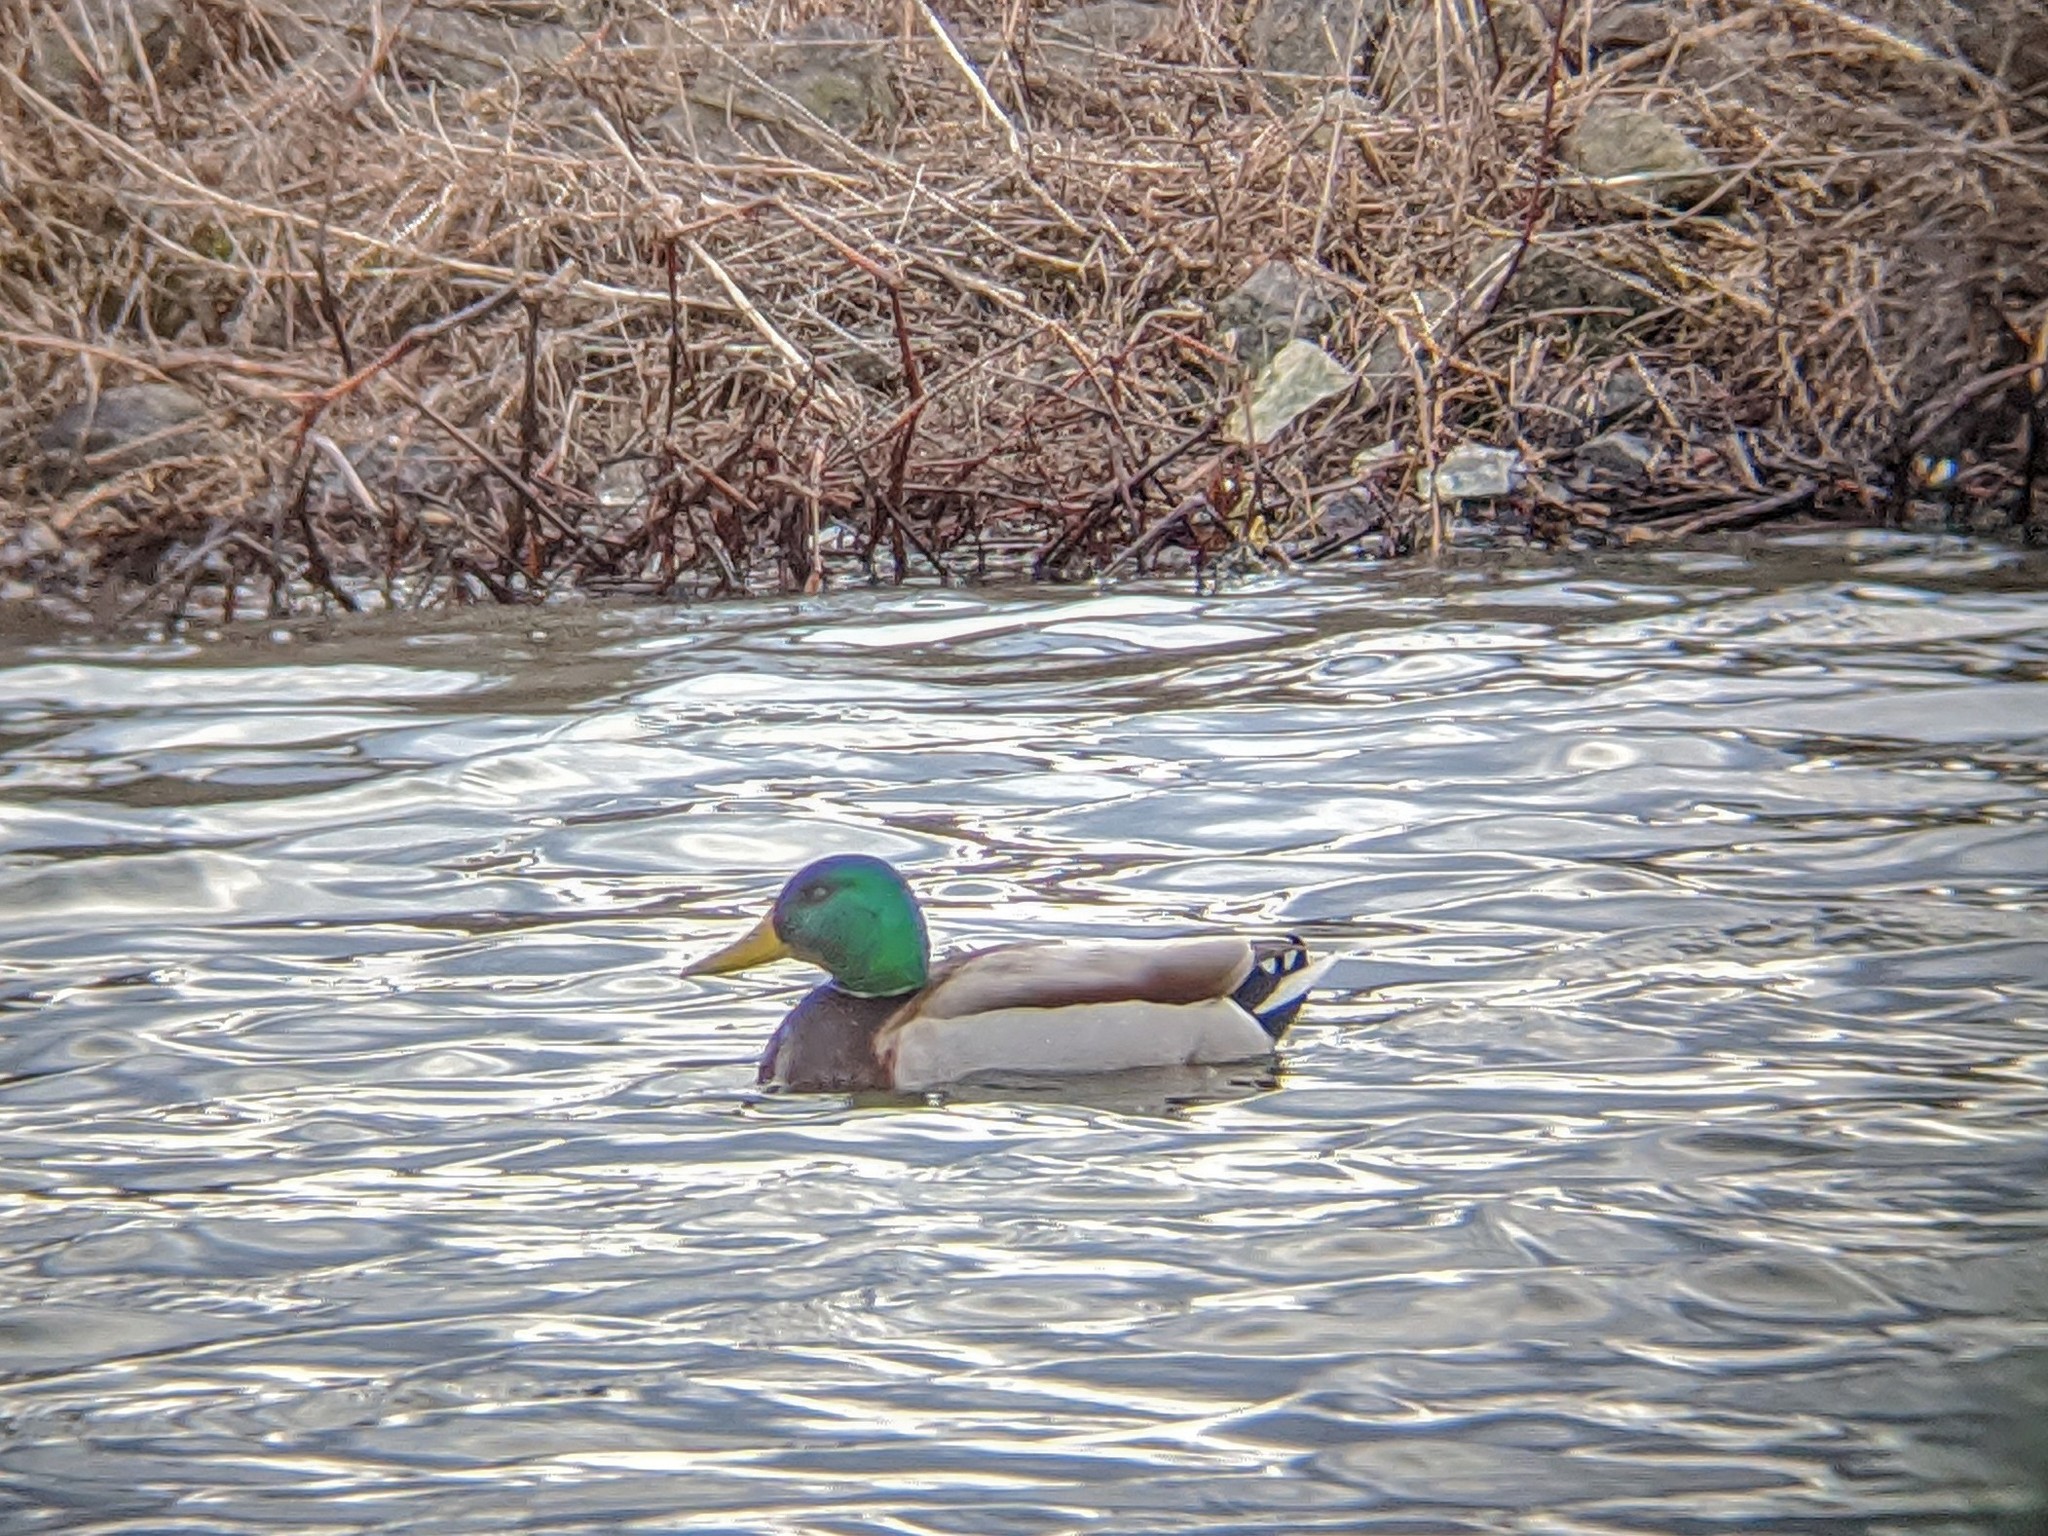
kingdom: Animalia
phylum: Chordata
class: Aves
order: Anseriformes
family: Anatidae
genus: Anas
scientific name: Anas platyrhynchos
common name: Mallard
